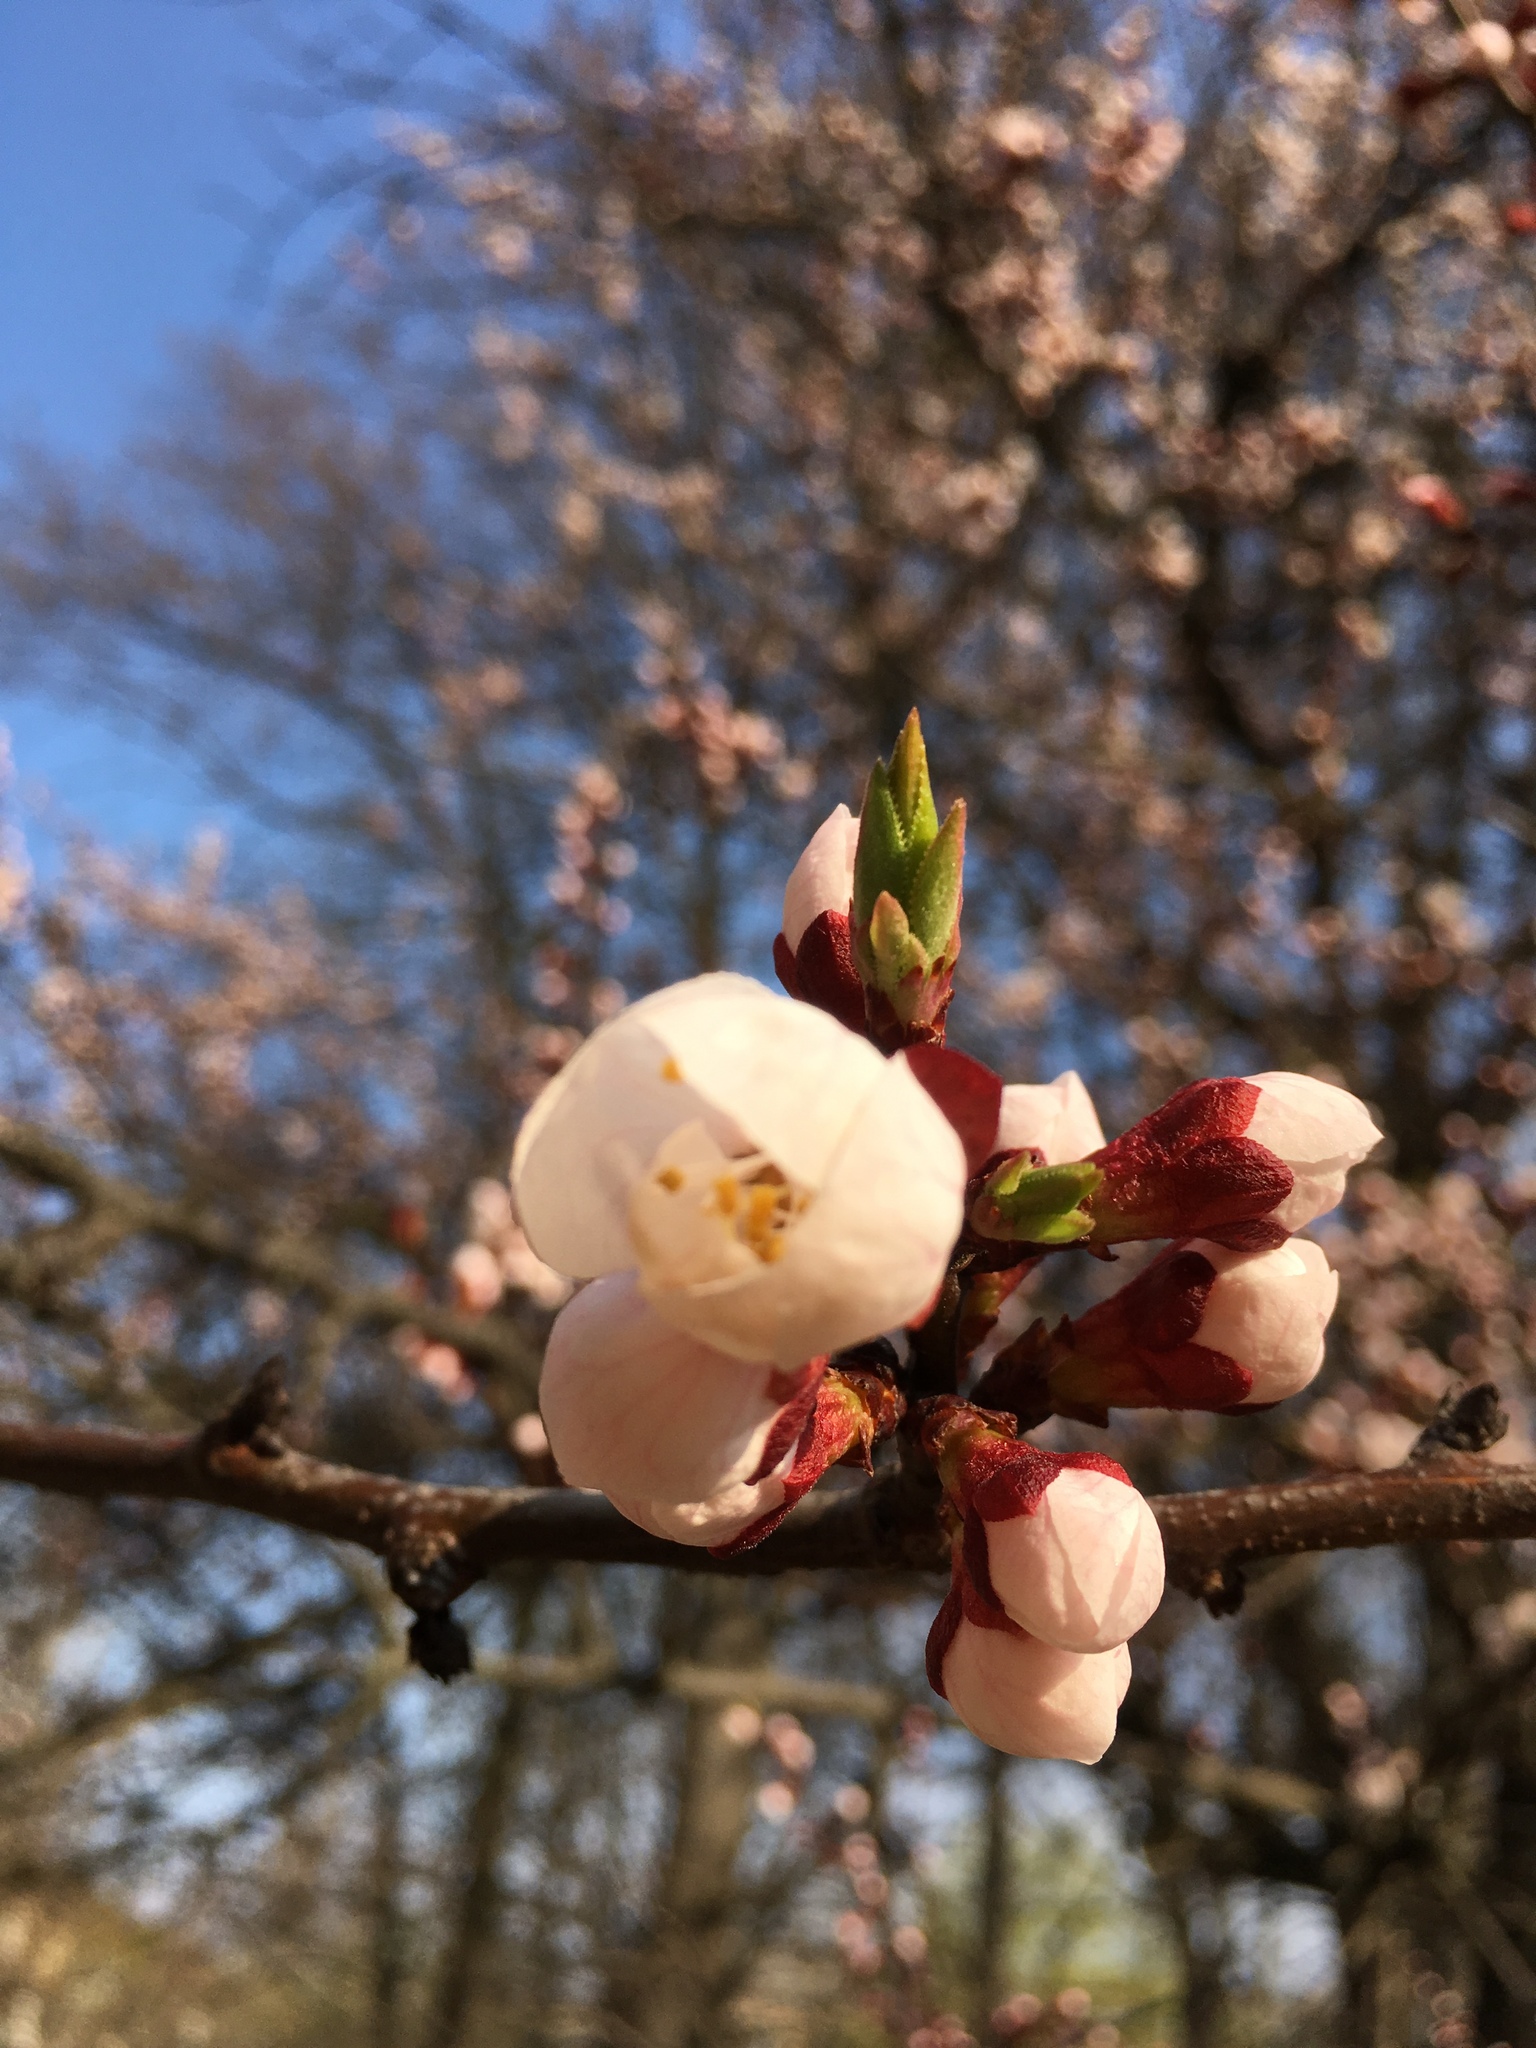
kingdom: Plantae
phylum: Tracheophyta
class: Magnoliopsida
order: Rosales
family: Rosaceae
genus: Prunus
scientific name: Prunus armeniaca
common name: Apricot
